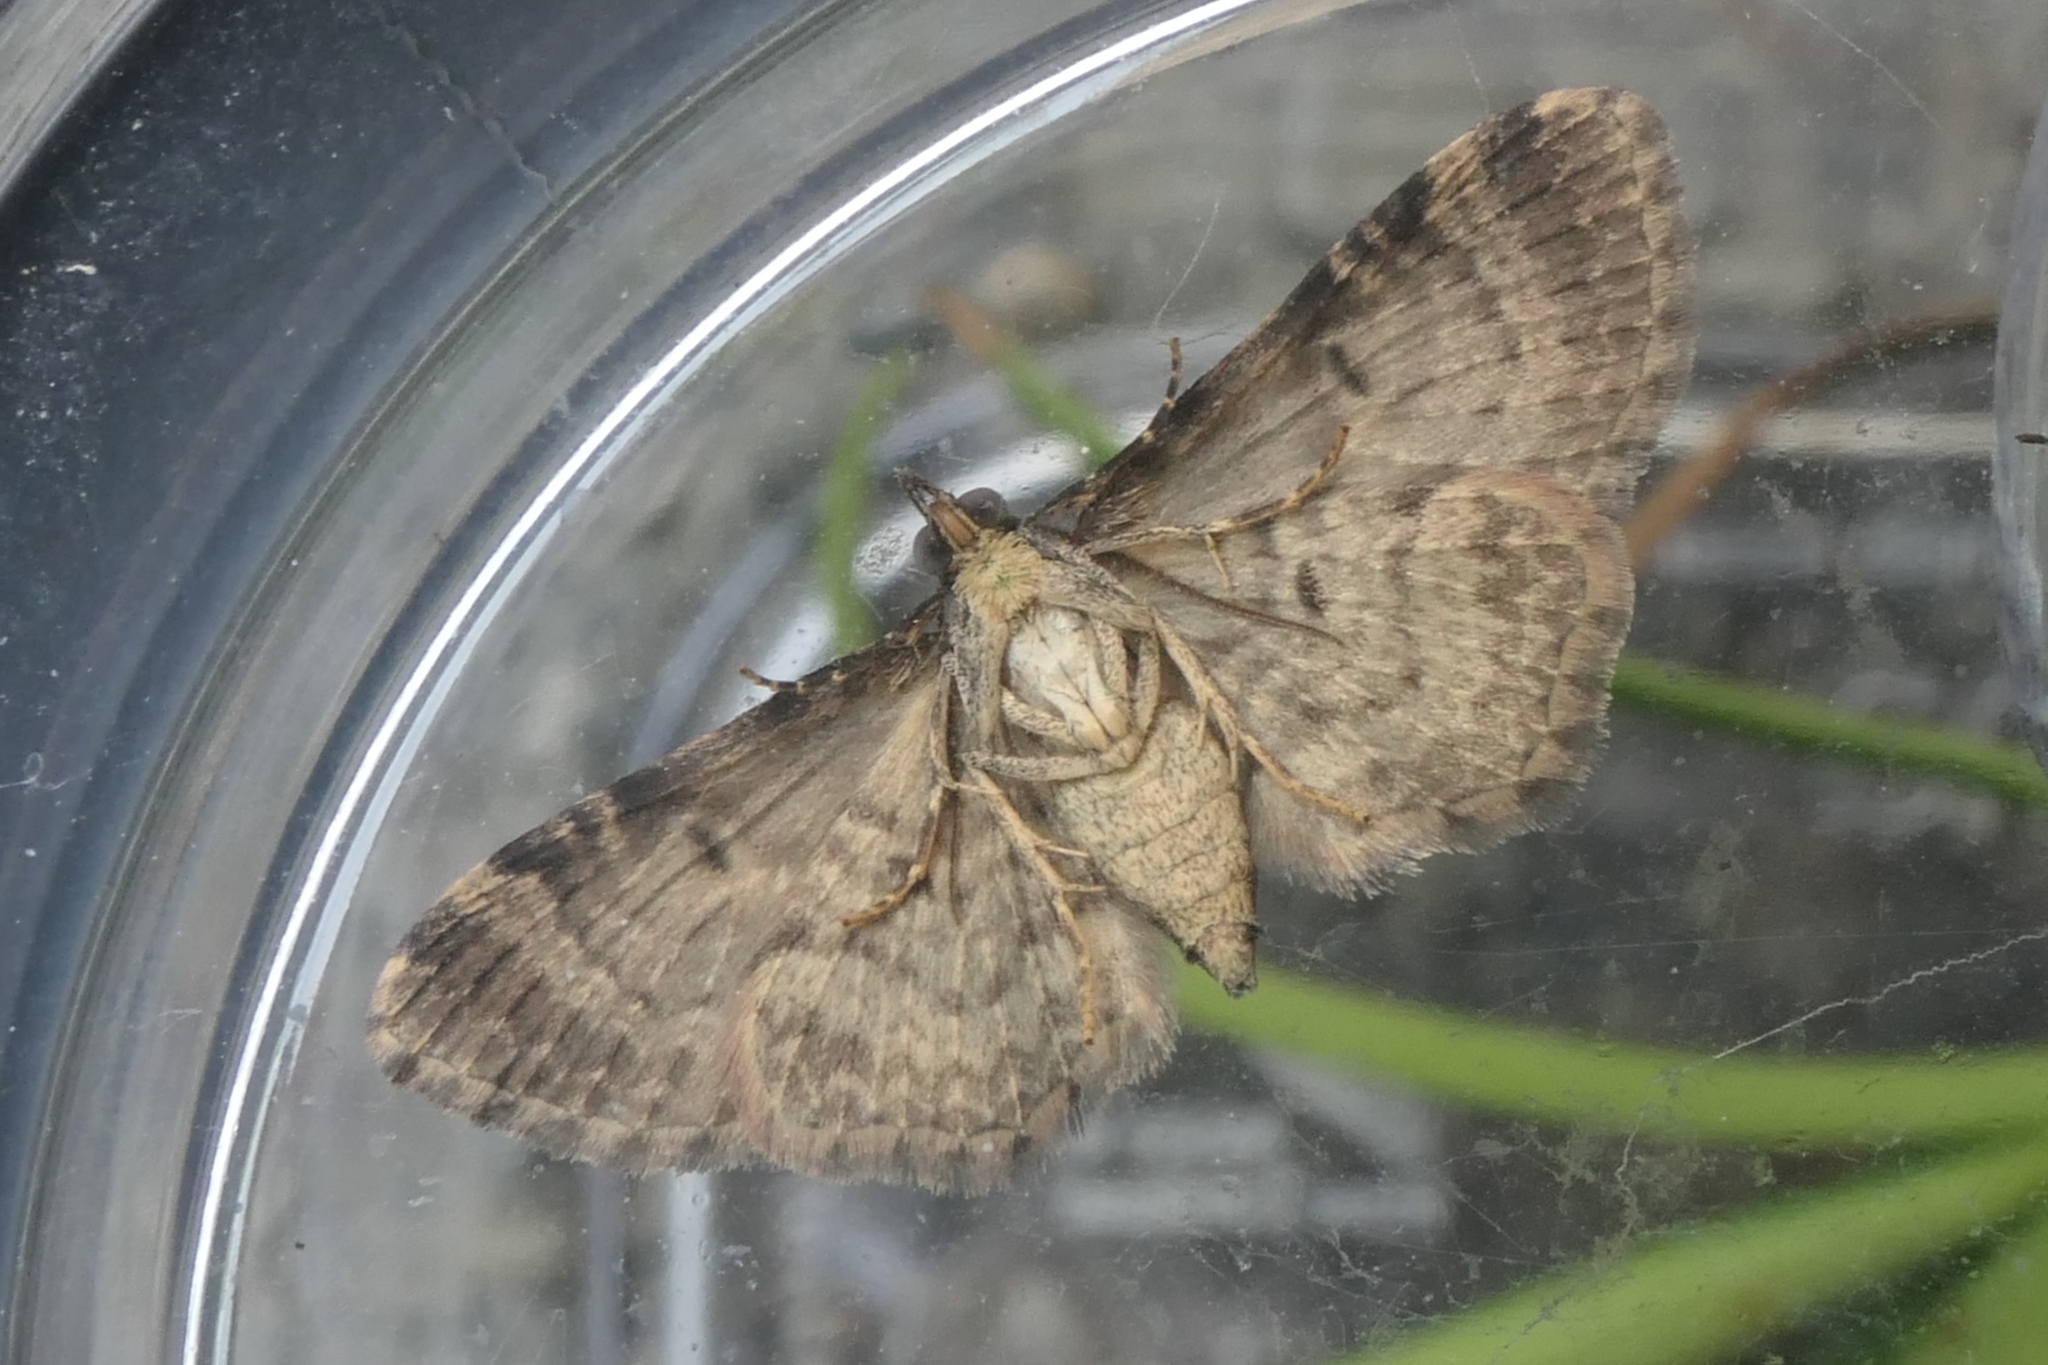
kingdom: Animalia
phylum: Arthropoda
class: Insecta
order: Lepidoptera
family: Geometridae
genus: Pasiphila
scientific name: Pasiphila lunata
